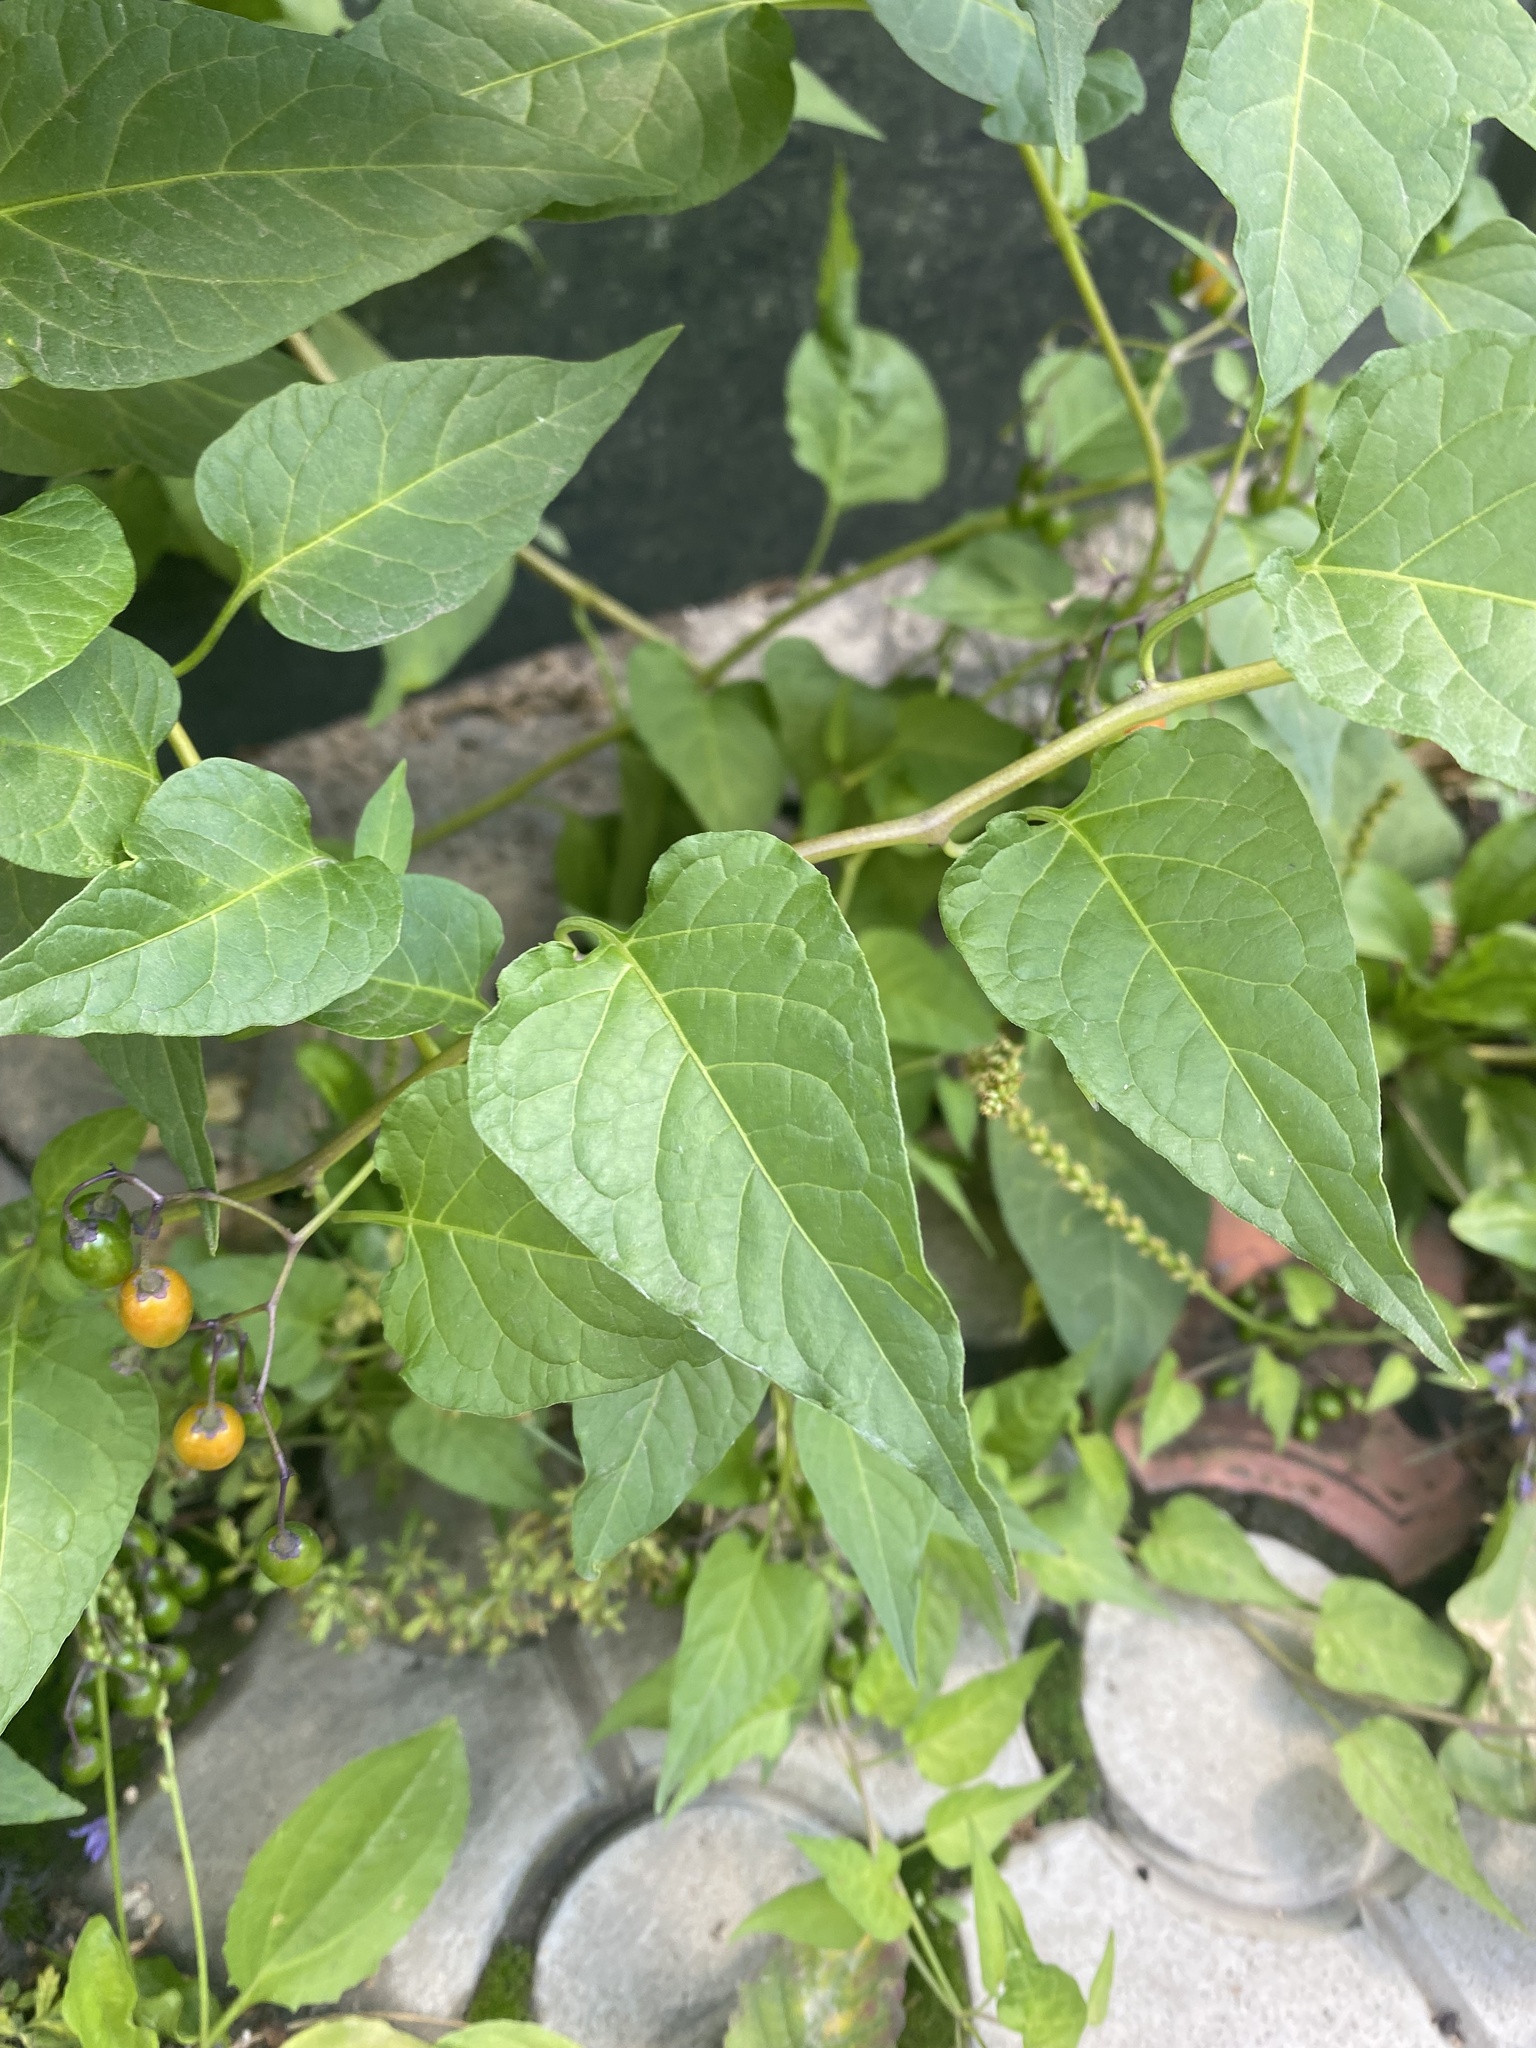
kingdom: Plantae
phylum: Tracheophyta
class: Magnoliopsida
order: Solanales
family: Solanaceae
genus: Solanum
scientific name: Solanum dulcamara
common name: Climbing nightshade
